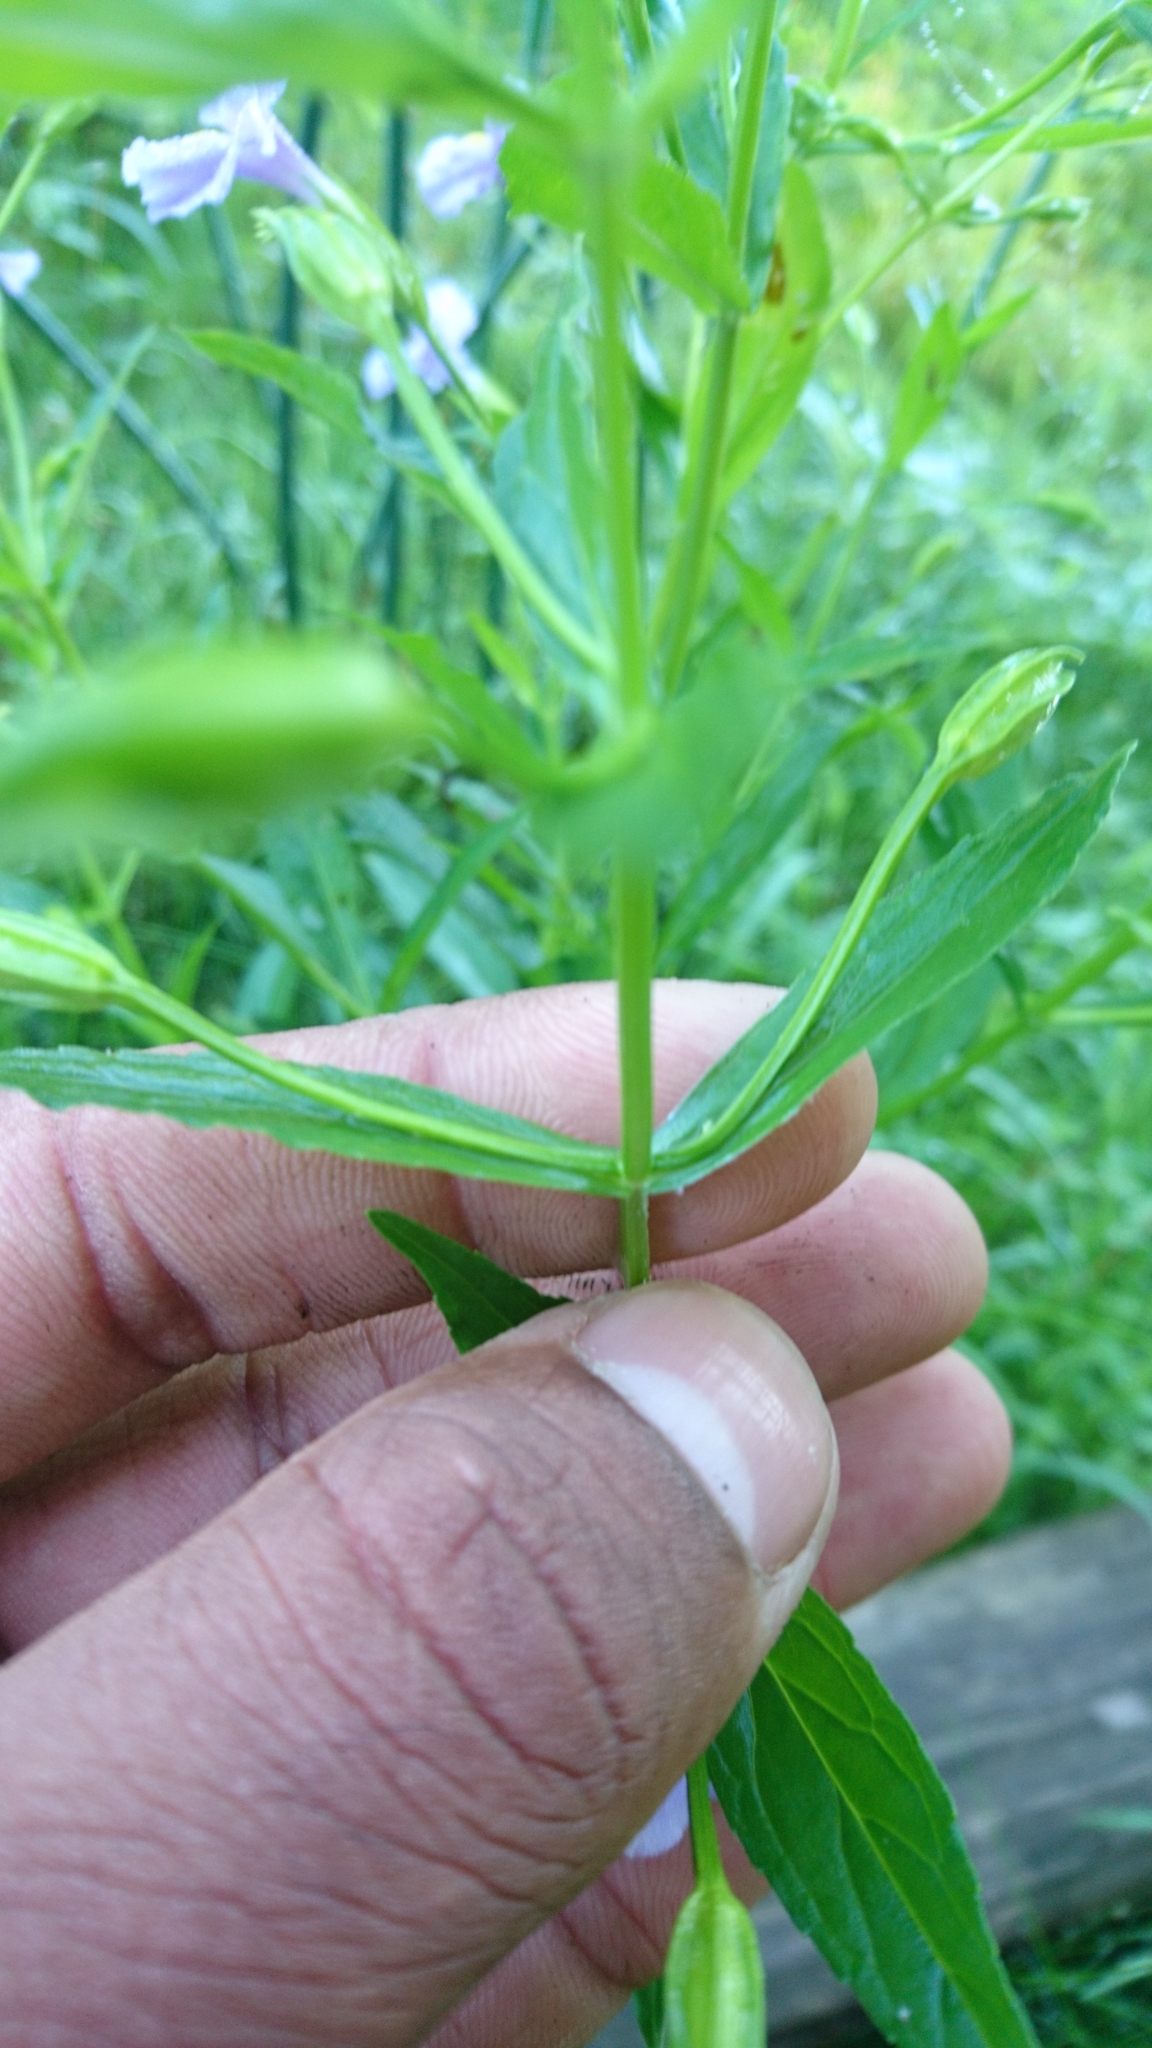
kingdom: Plantae
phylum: Tracheophyta
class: Magnoliopsida
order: Lamiales
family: Phrymaceae
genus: Mimulus
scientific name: Mimulus ringens
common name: Allegheny monkeyflower
